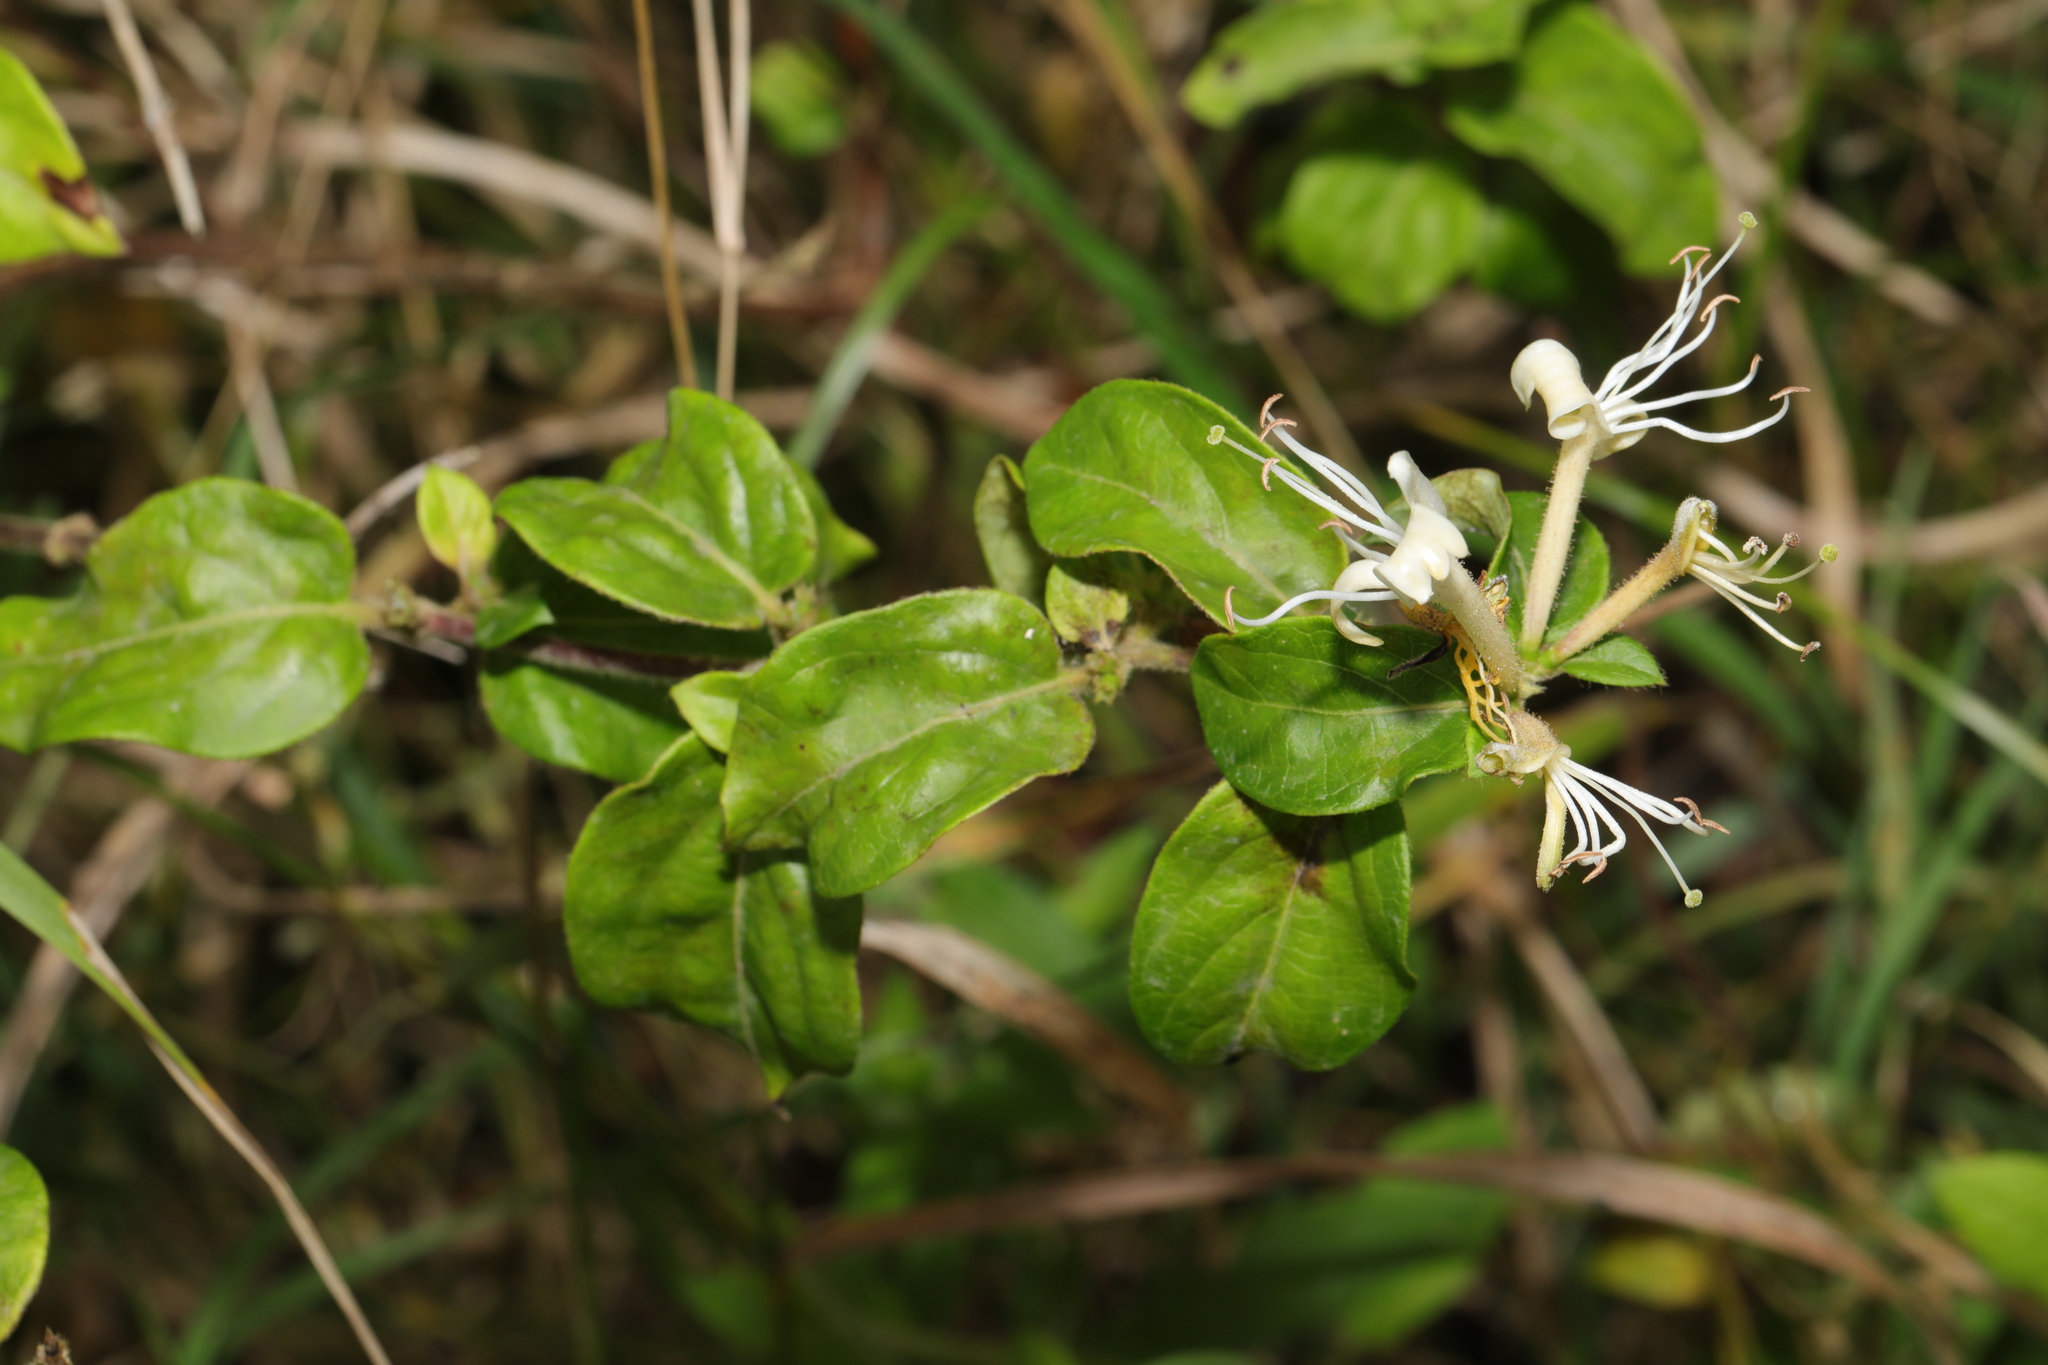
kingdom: Plantae
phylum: Tracheophyta
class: Magnoliopsida
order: Dipsacales
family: Caprifoliaceae
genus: Lonicera
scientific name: Lonicera japonica
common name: Japanese honeysuckle
